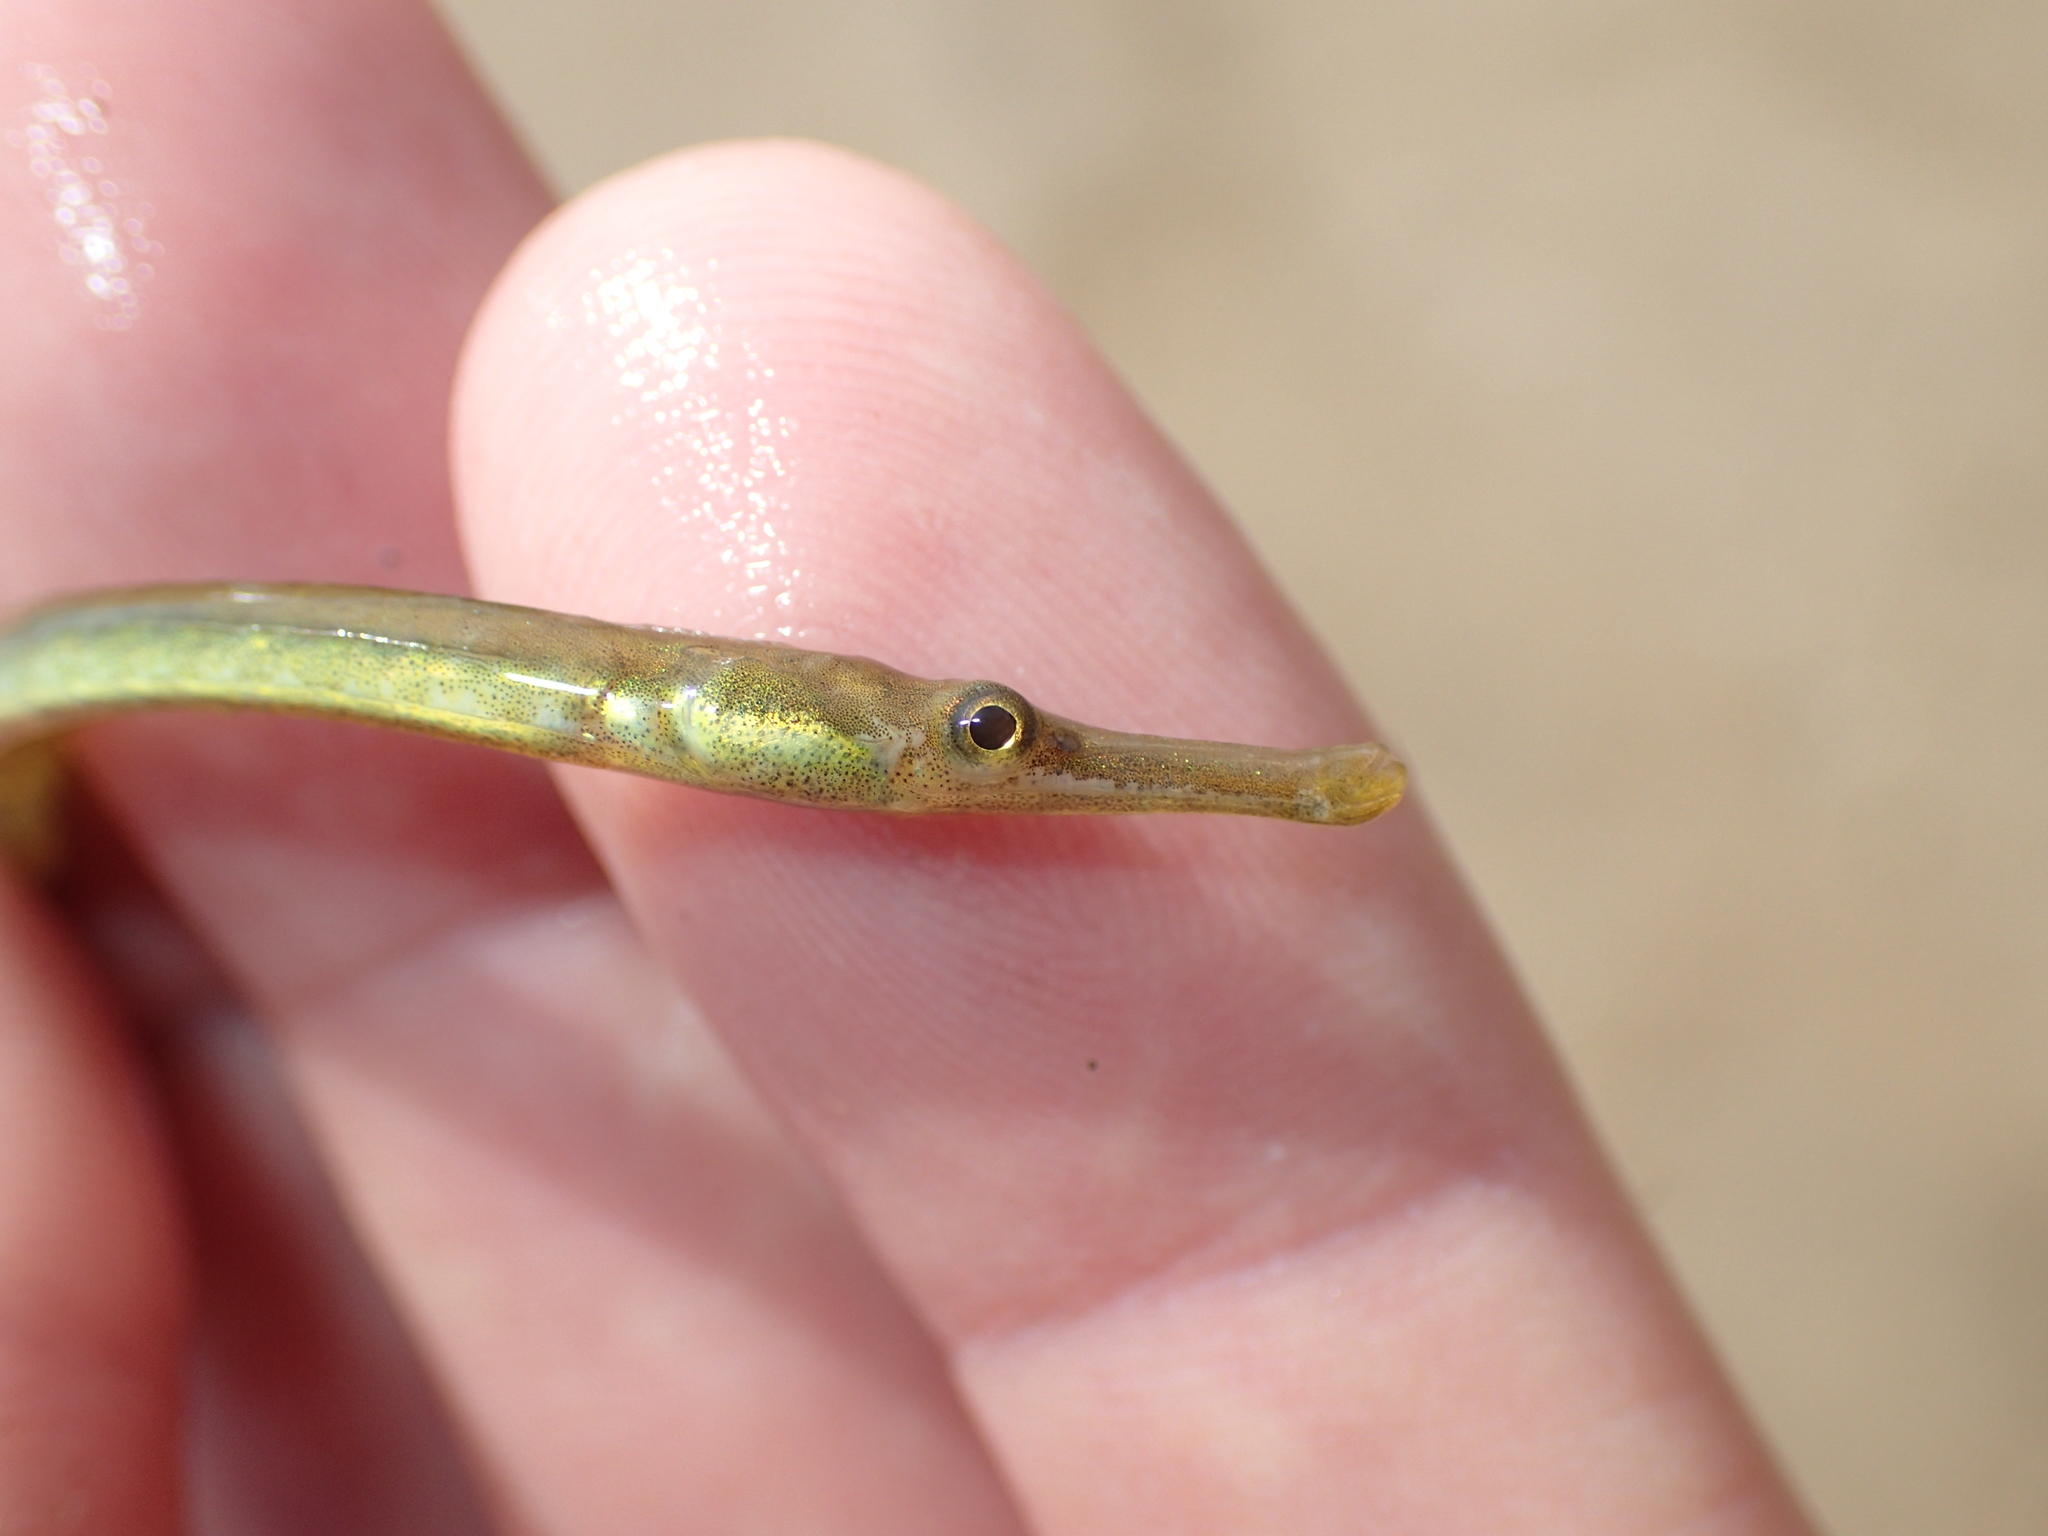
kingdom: Animalia
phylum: Chordata
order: Syngnathiformes
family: Syngnathidae
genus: Syngnathus
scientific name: Syngnathus rostellatus
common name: Nilsson's pipefish
